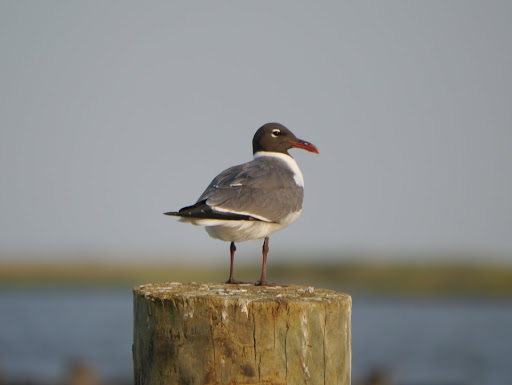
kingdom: Animalia
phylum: Chordata
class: Aves
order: Charadriiformes
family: Laridae
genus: Leucophaeus
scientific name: Leucophaeus atricilla
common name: Laughing gull
